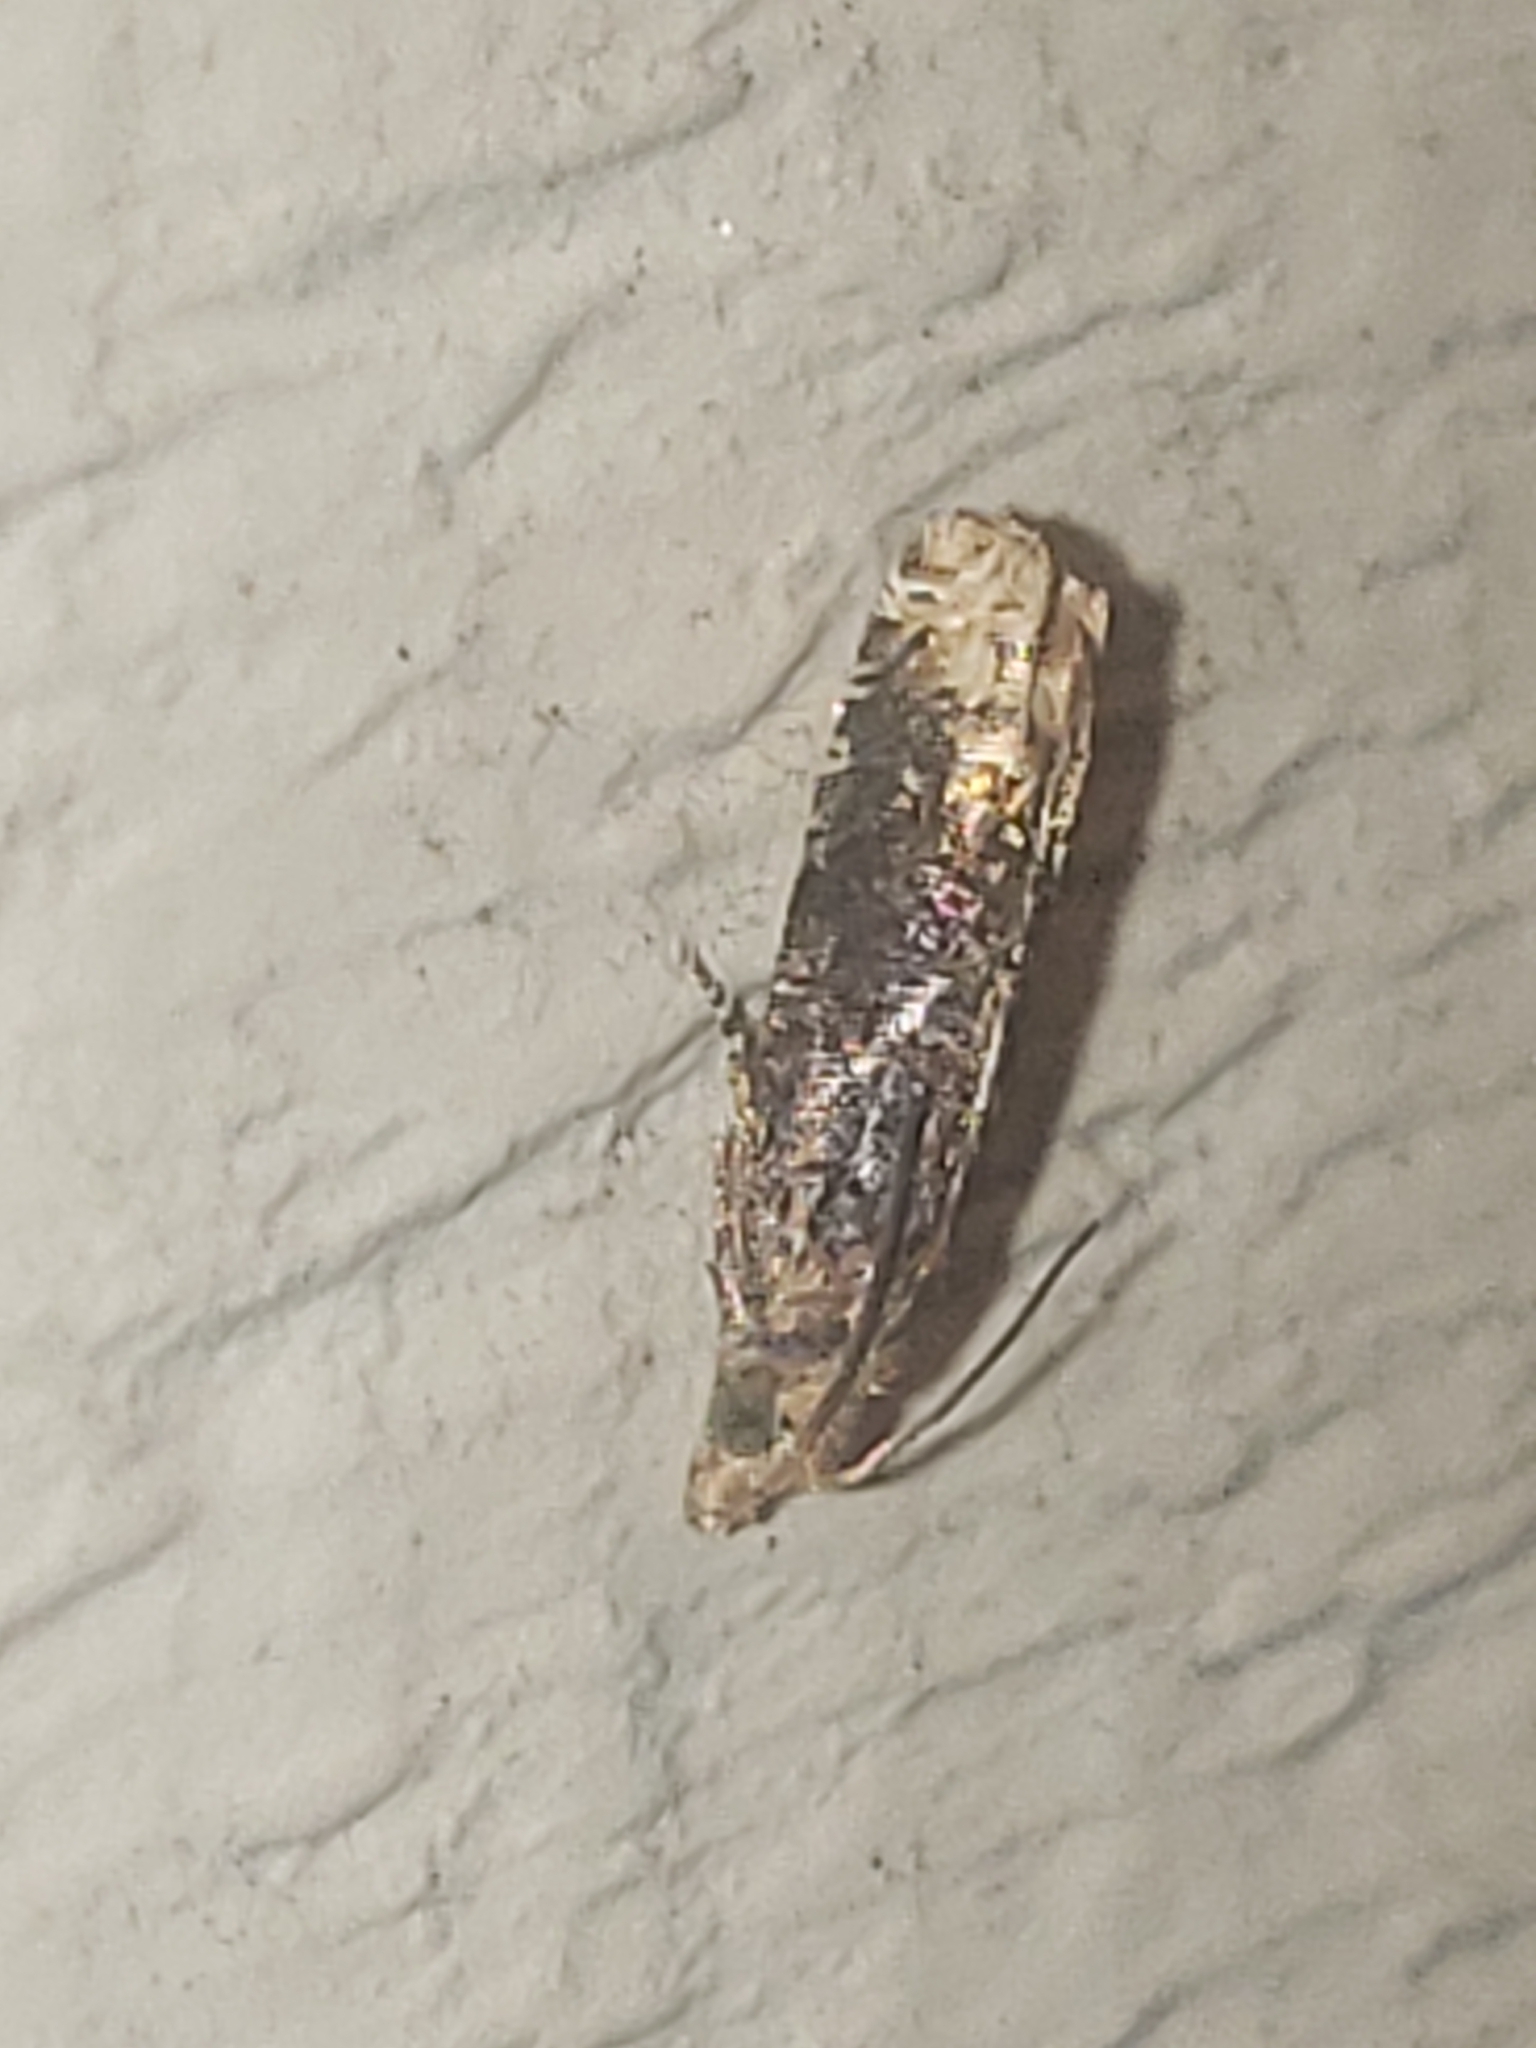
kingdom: Animalia
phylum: Arthropoda
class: Insecta
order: Lepidoptera
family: Tortricidae
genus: Eucosma
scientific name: Eucosma ochroterminana
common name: Buff-tipped eucosma moth
